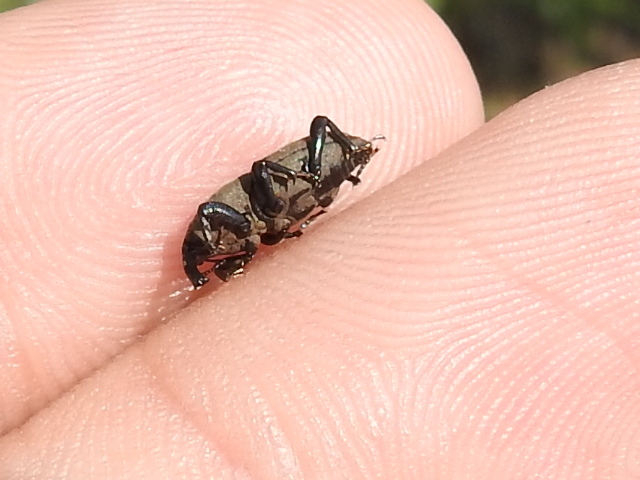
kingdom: Animalia
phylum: Arthropoda
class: Insecta
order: Coleoptera
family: Dryophthoridae
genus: Sphenophorus
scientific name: Sphenophorus coesifrons
